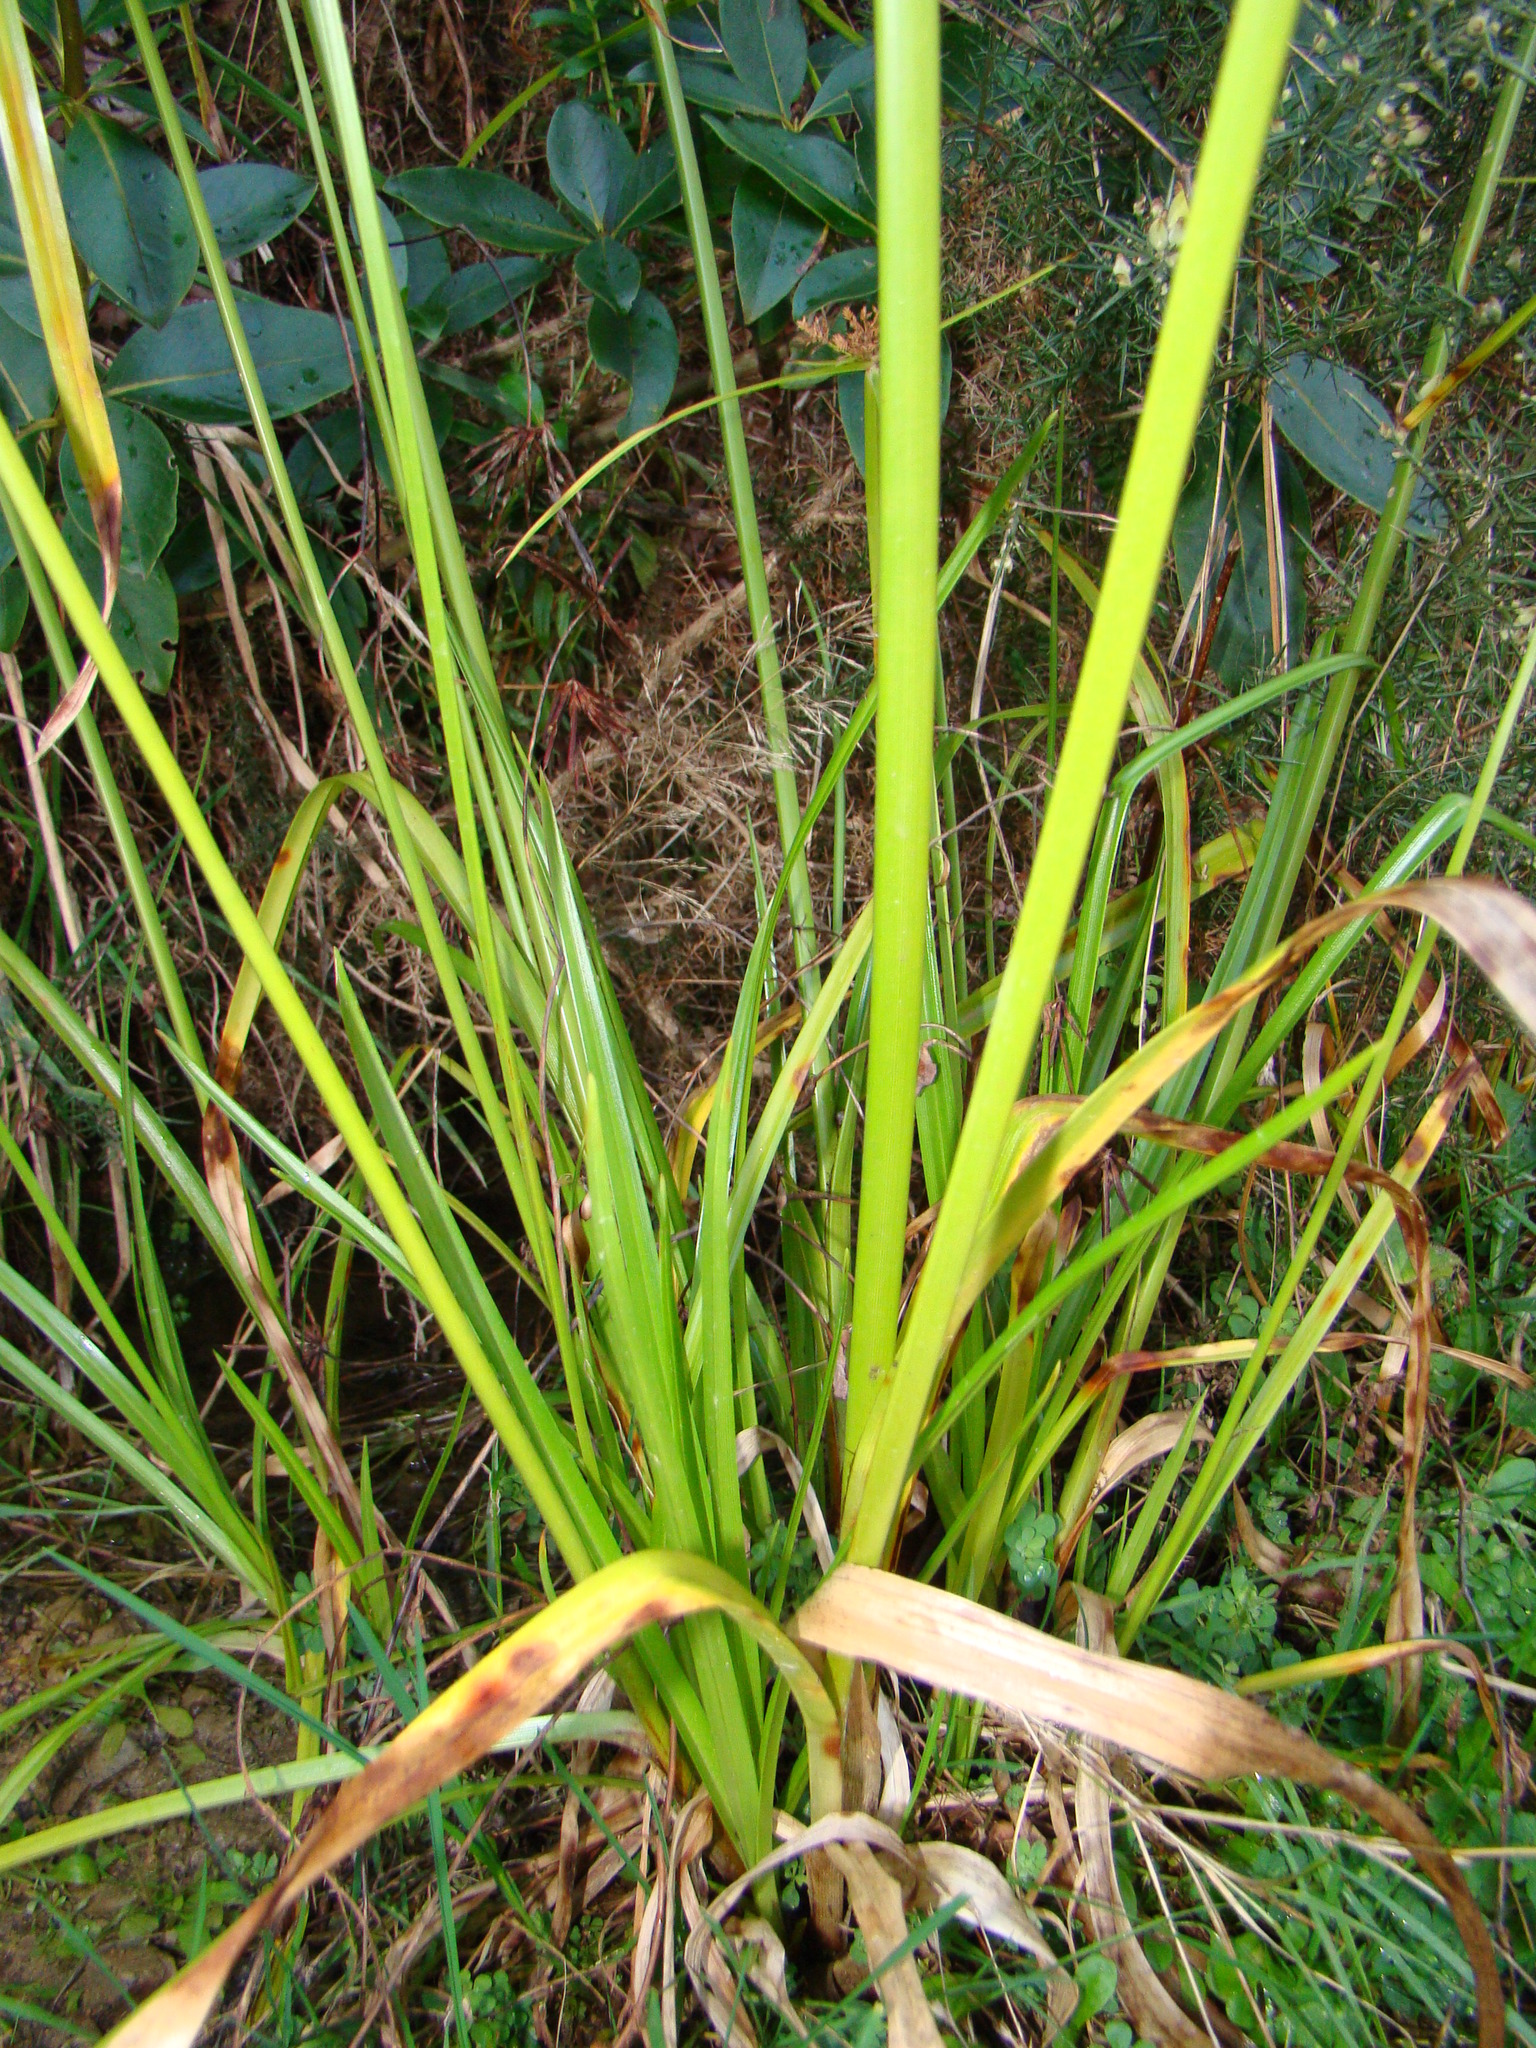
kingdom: Plantae
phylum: Tracheophyta
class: Liliopsida
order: Poales
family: Cyperaceae
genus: Cyperus
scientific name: Cyperus eragrostis
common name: Tall flatsedge
